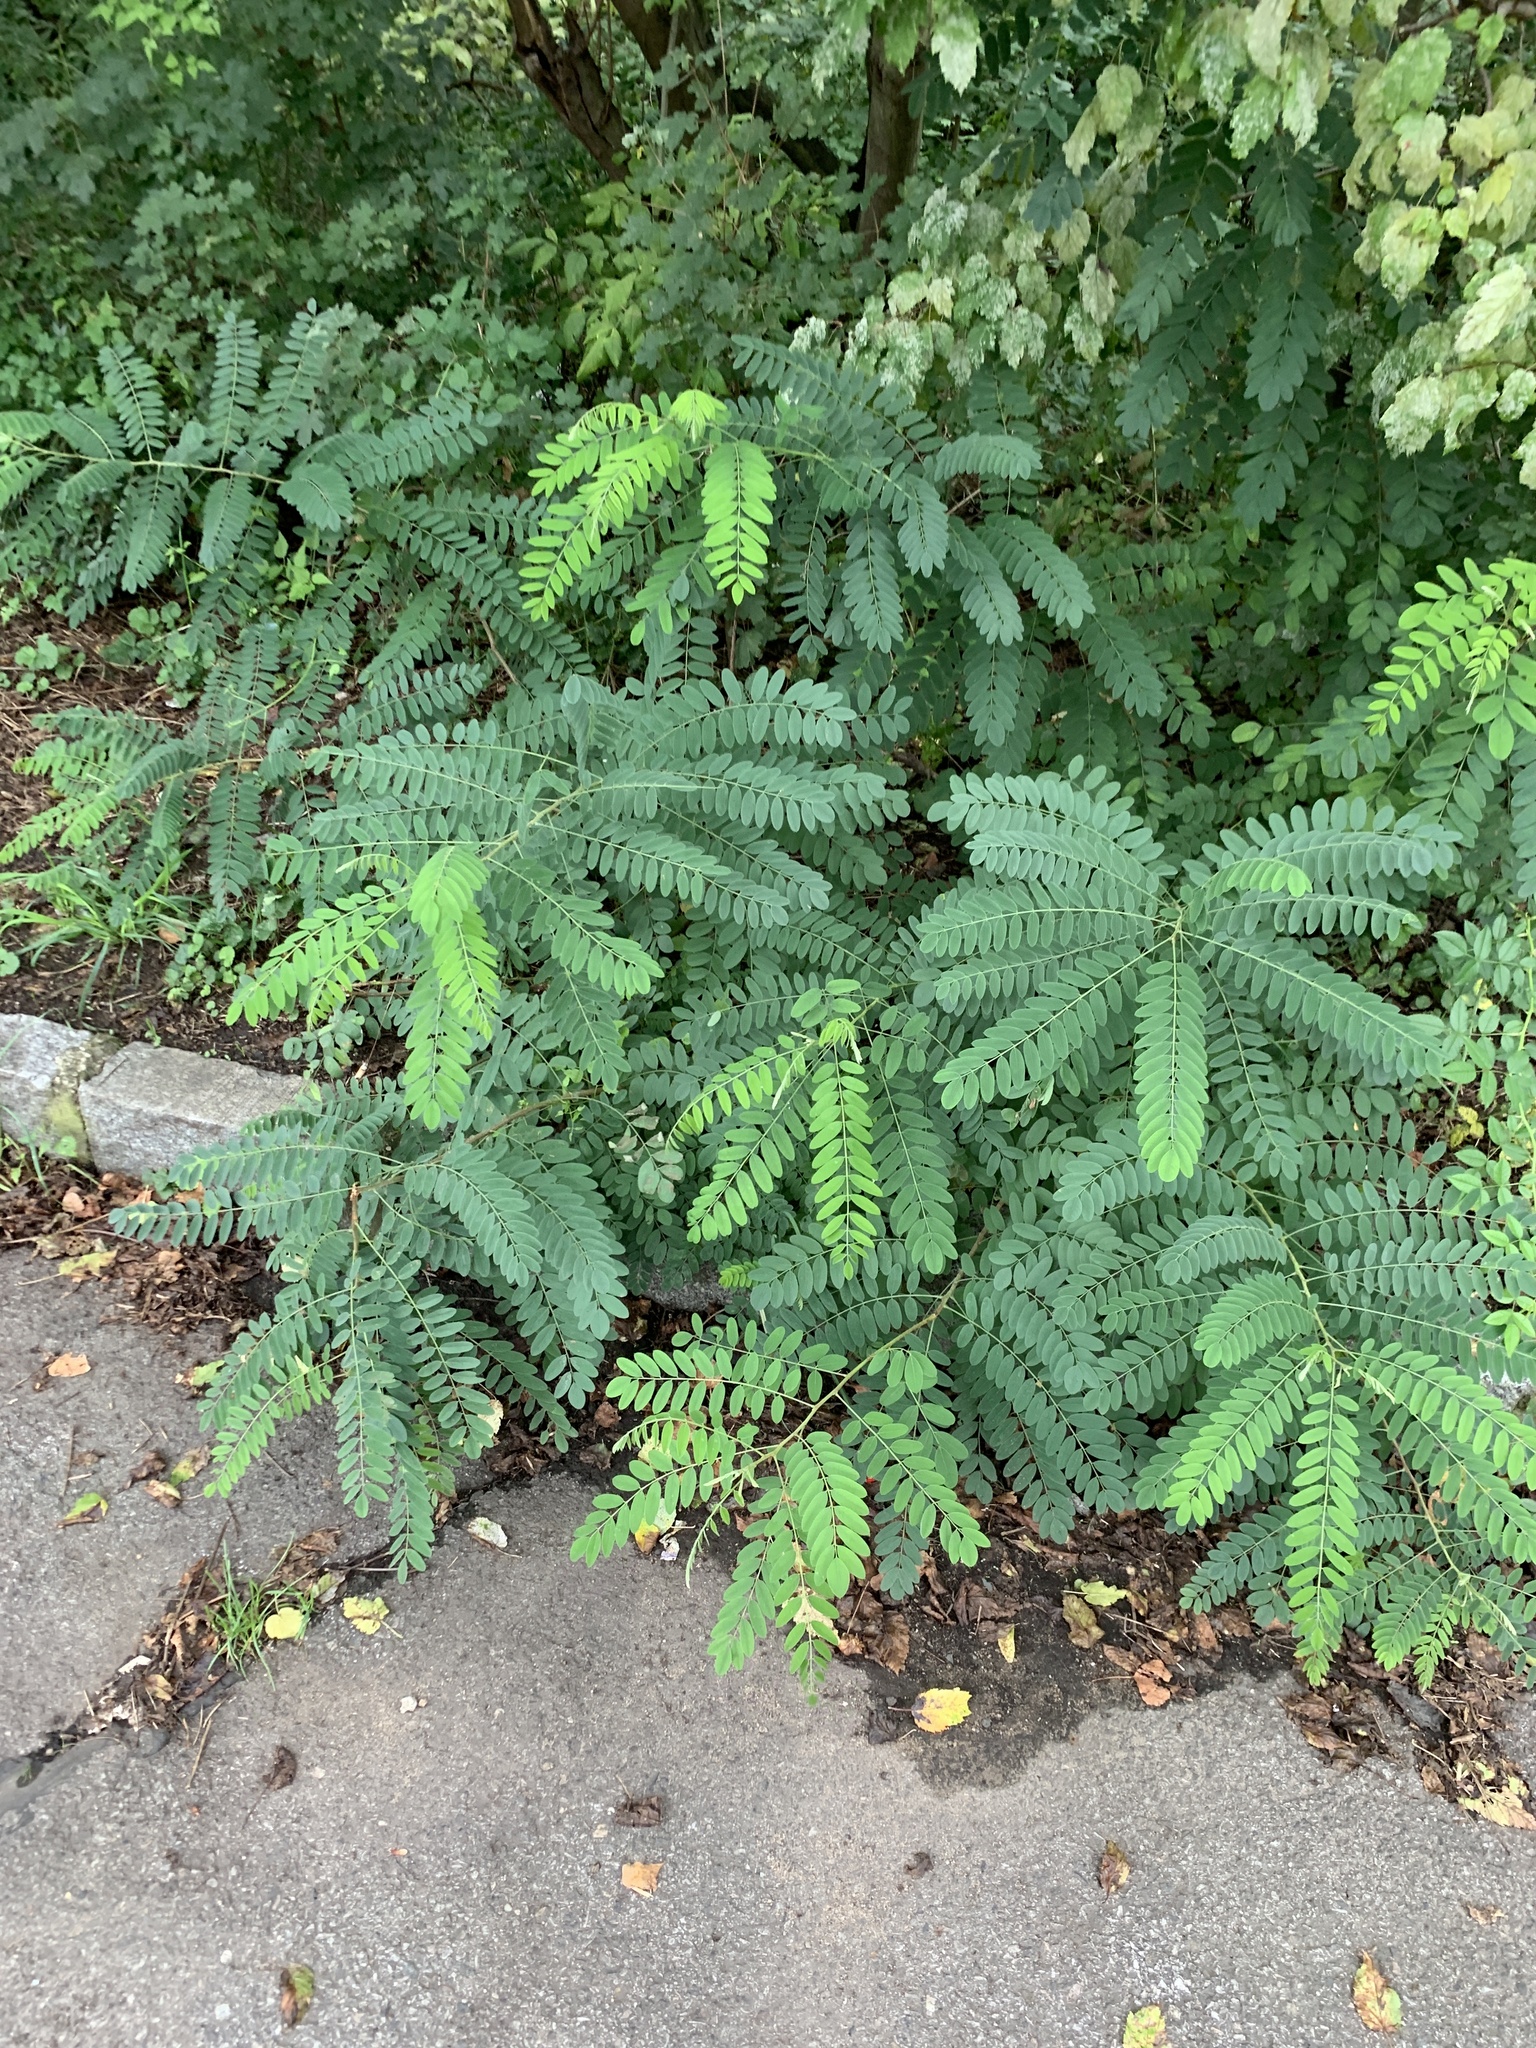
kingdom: Plantae
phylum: Tracheophyta
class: Magnoliopsida
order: Fabales
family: Fabaceae
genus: Robinia
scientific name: Robinia pseudoacacia
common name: Black locust
